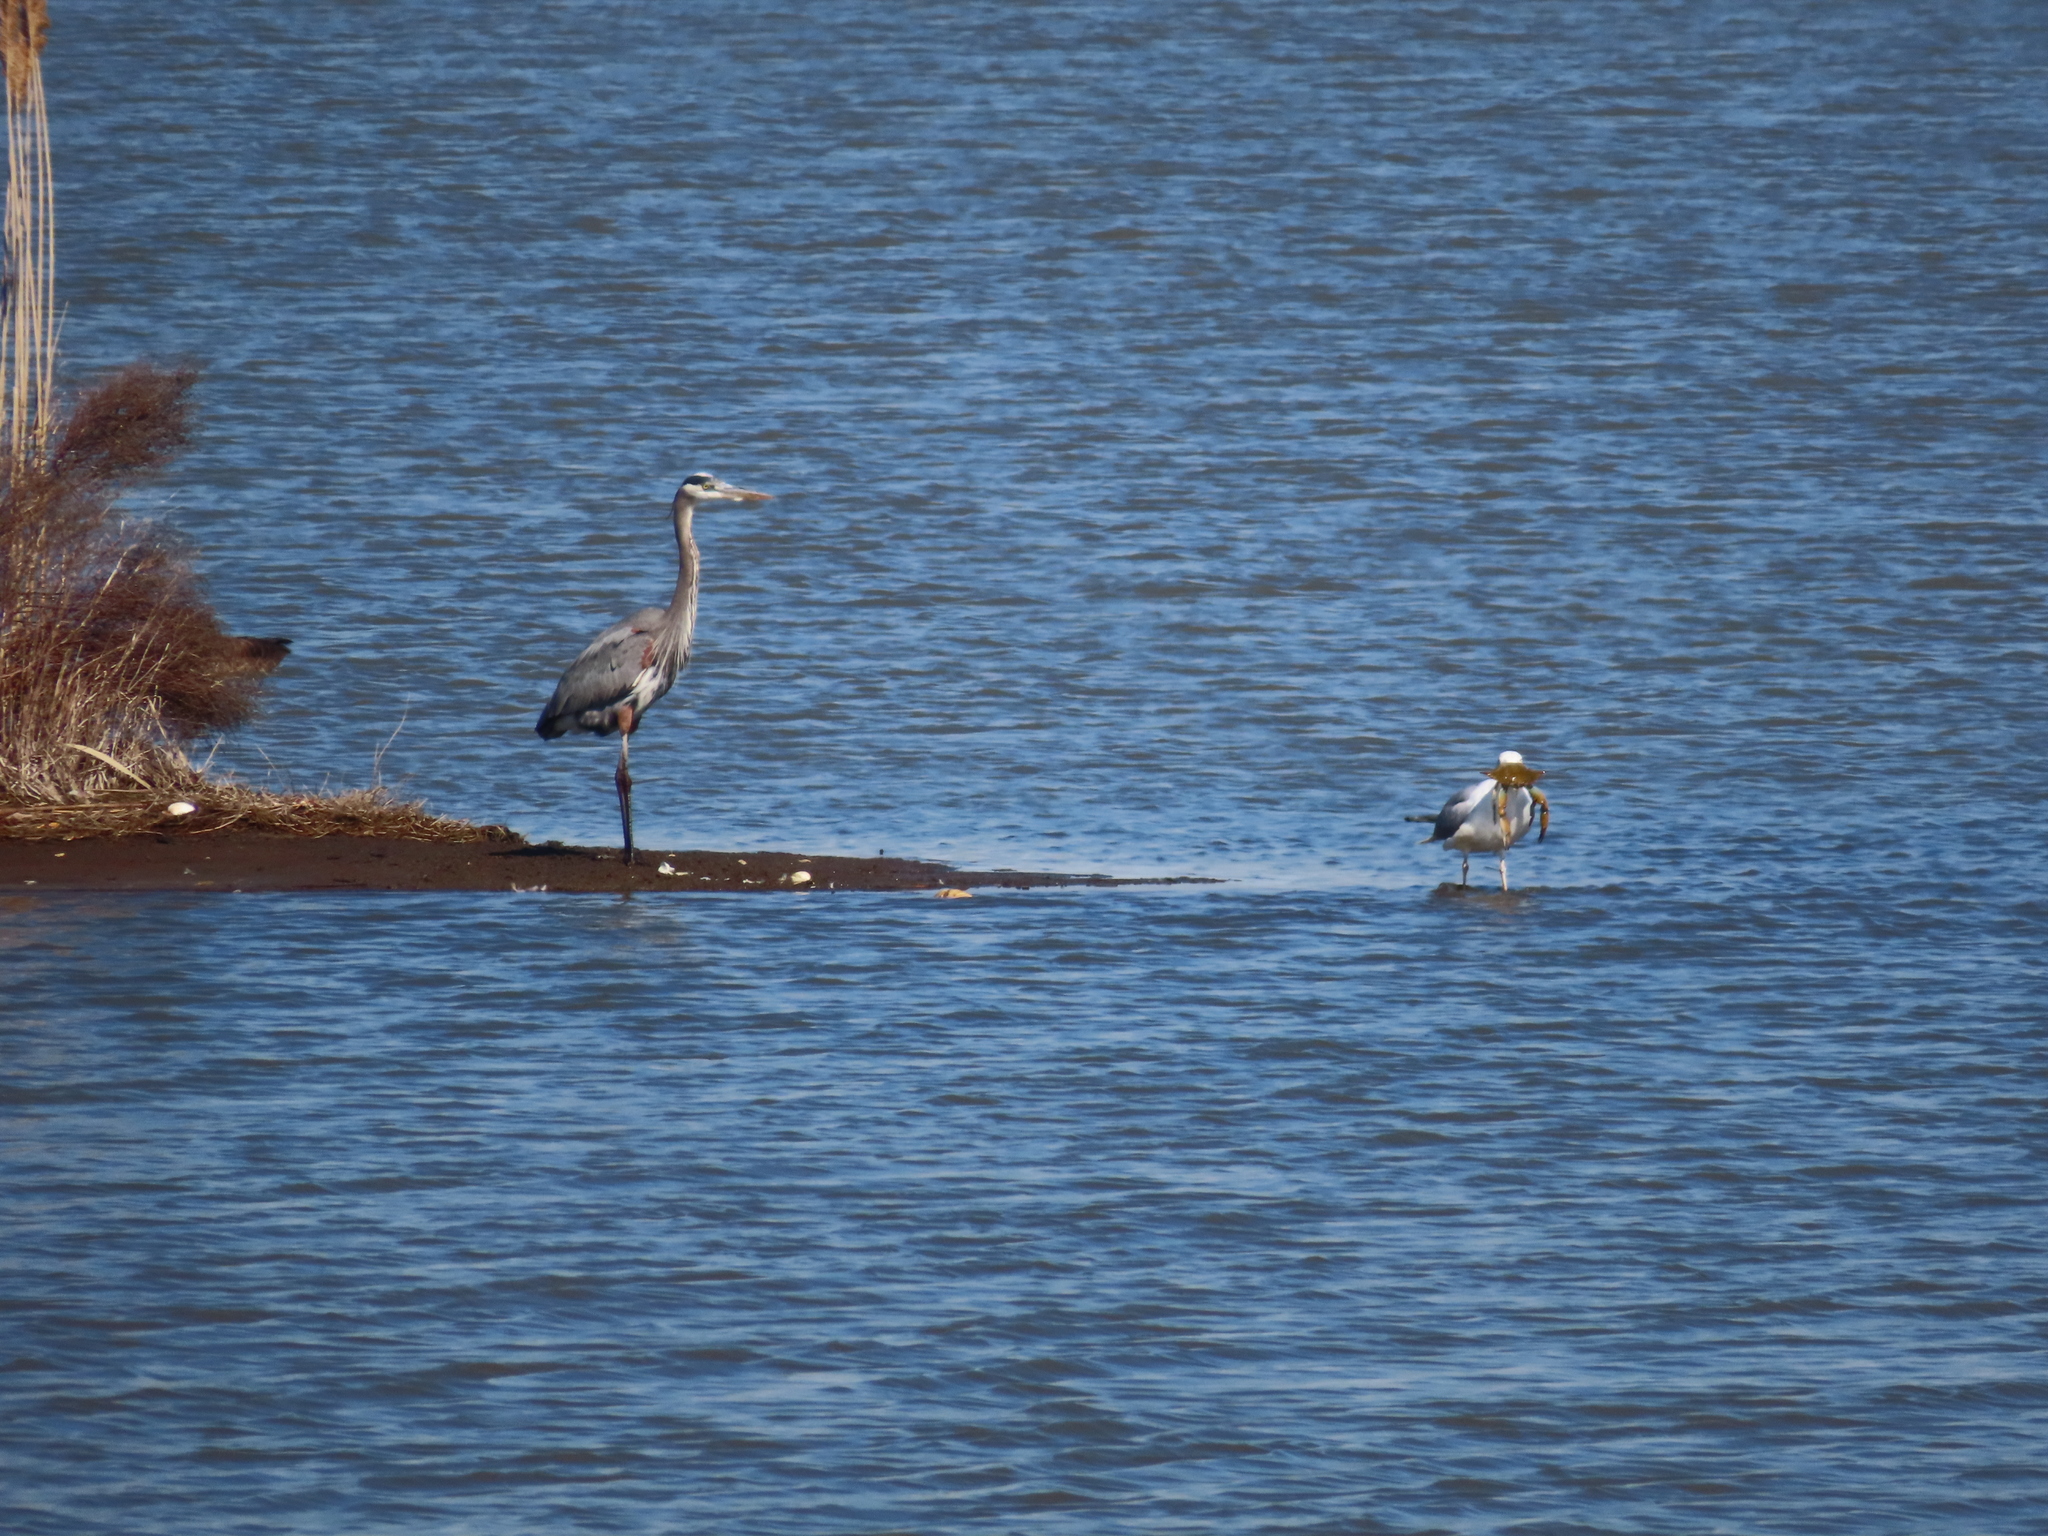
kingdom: Animalia
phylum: Chordata
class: Aves
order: Pelecaniformes
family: Ardeidae
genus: Ardea
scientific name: Ardea herodias
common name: Great blue heron
